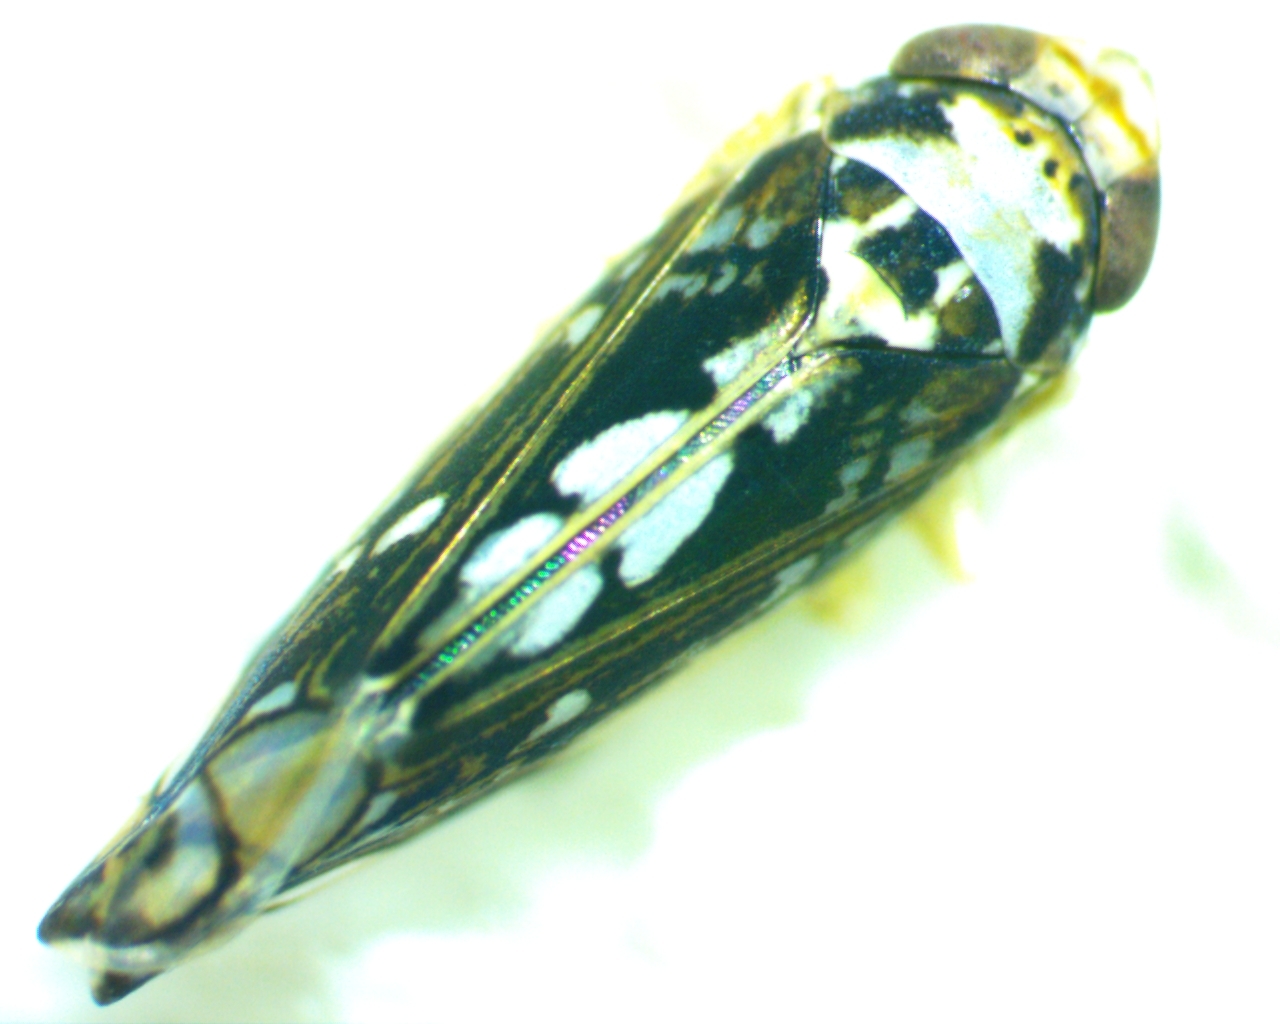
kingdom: Animalia
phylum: Arthropoda
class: Insecta
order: Hemiptera
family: Cicadellidae
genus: Scaphoideus
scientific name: Scaphoideus melanotus
